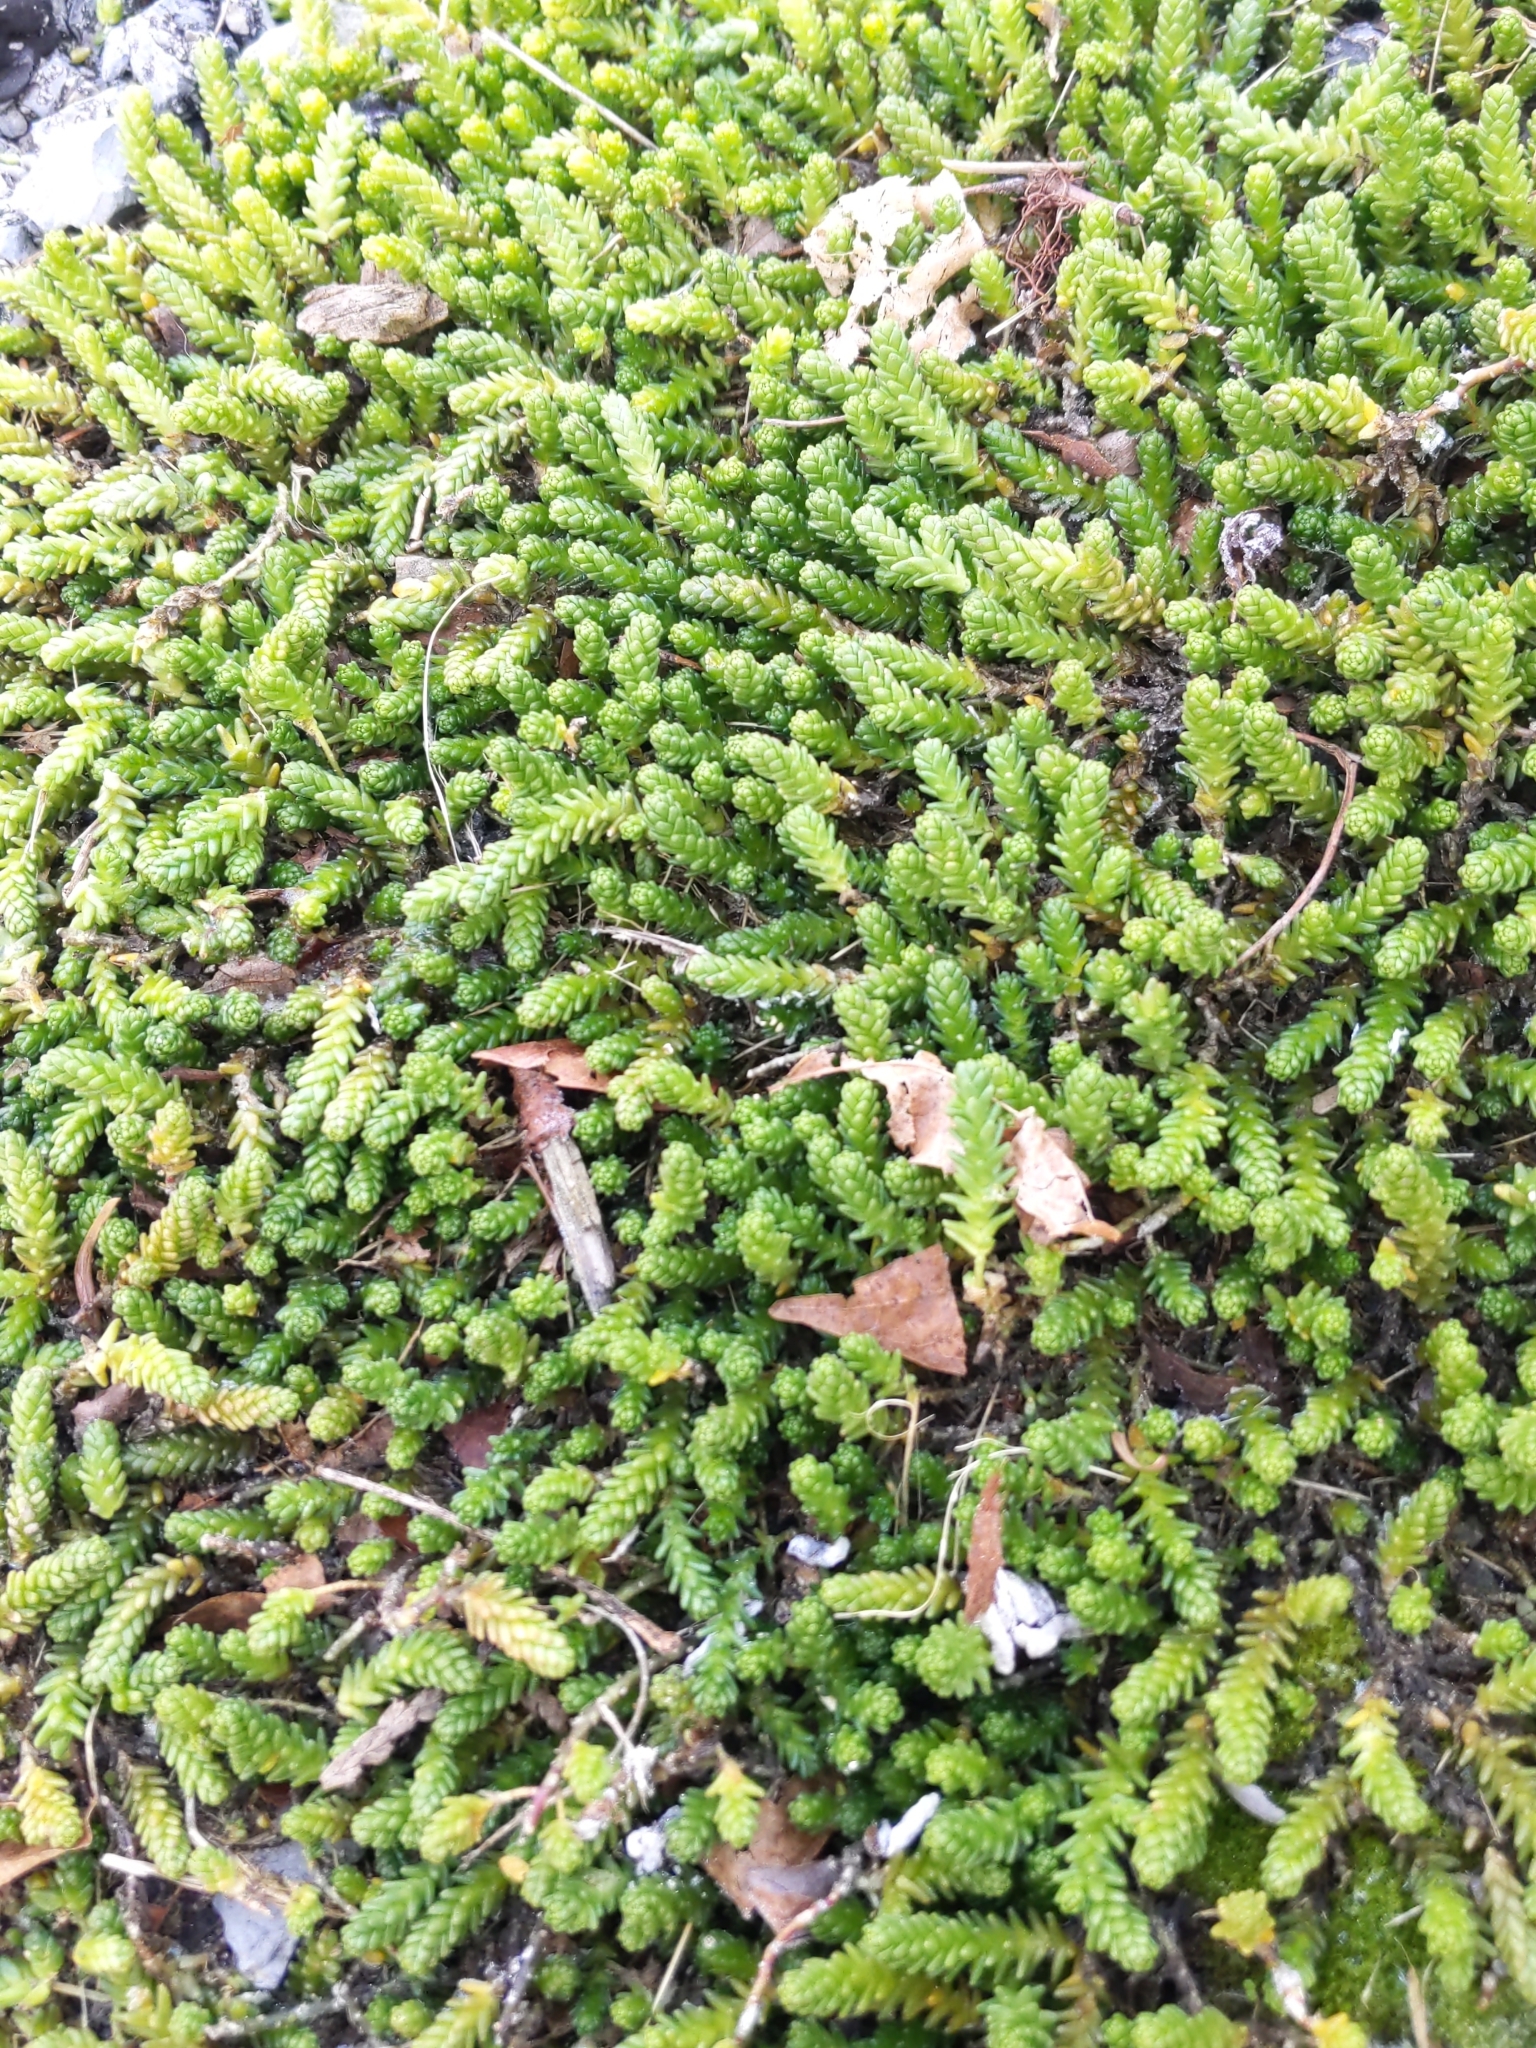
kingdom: Plantae
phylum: Tracheophyta
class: Magnoliopsida
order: Saxifragales
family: Crassulaceae
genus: Sedum
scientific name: Sedum acre
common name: Biting stonecrop
